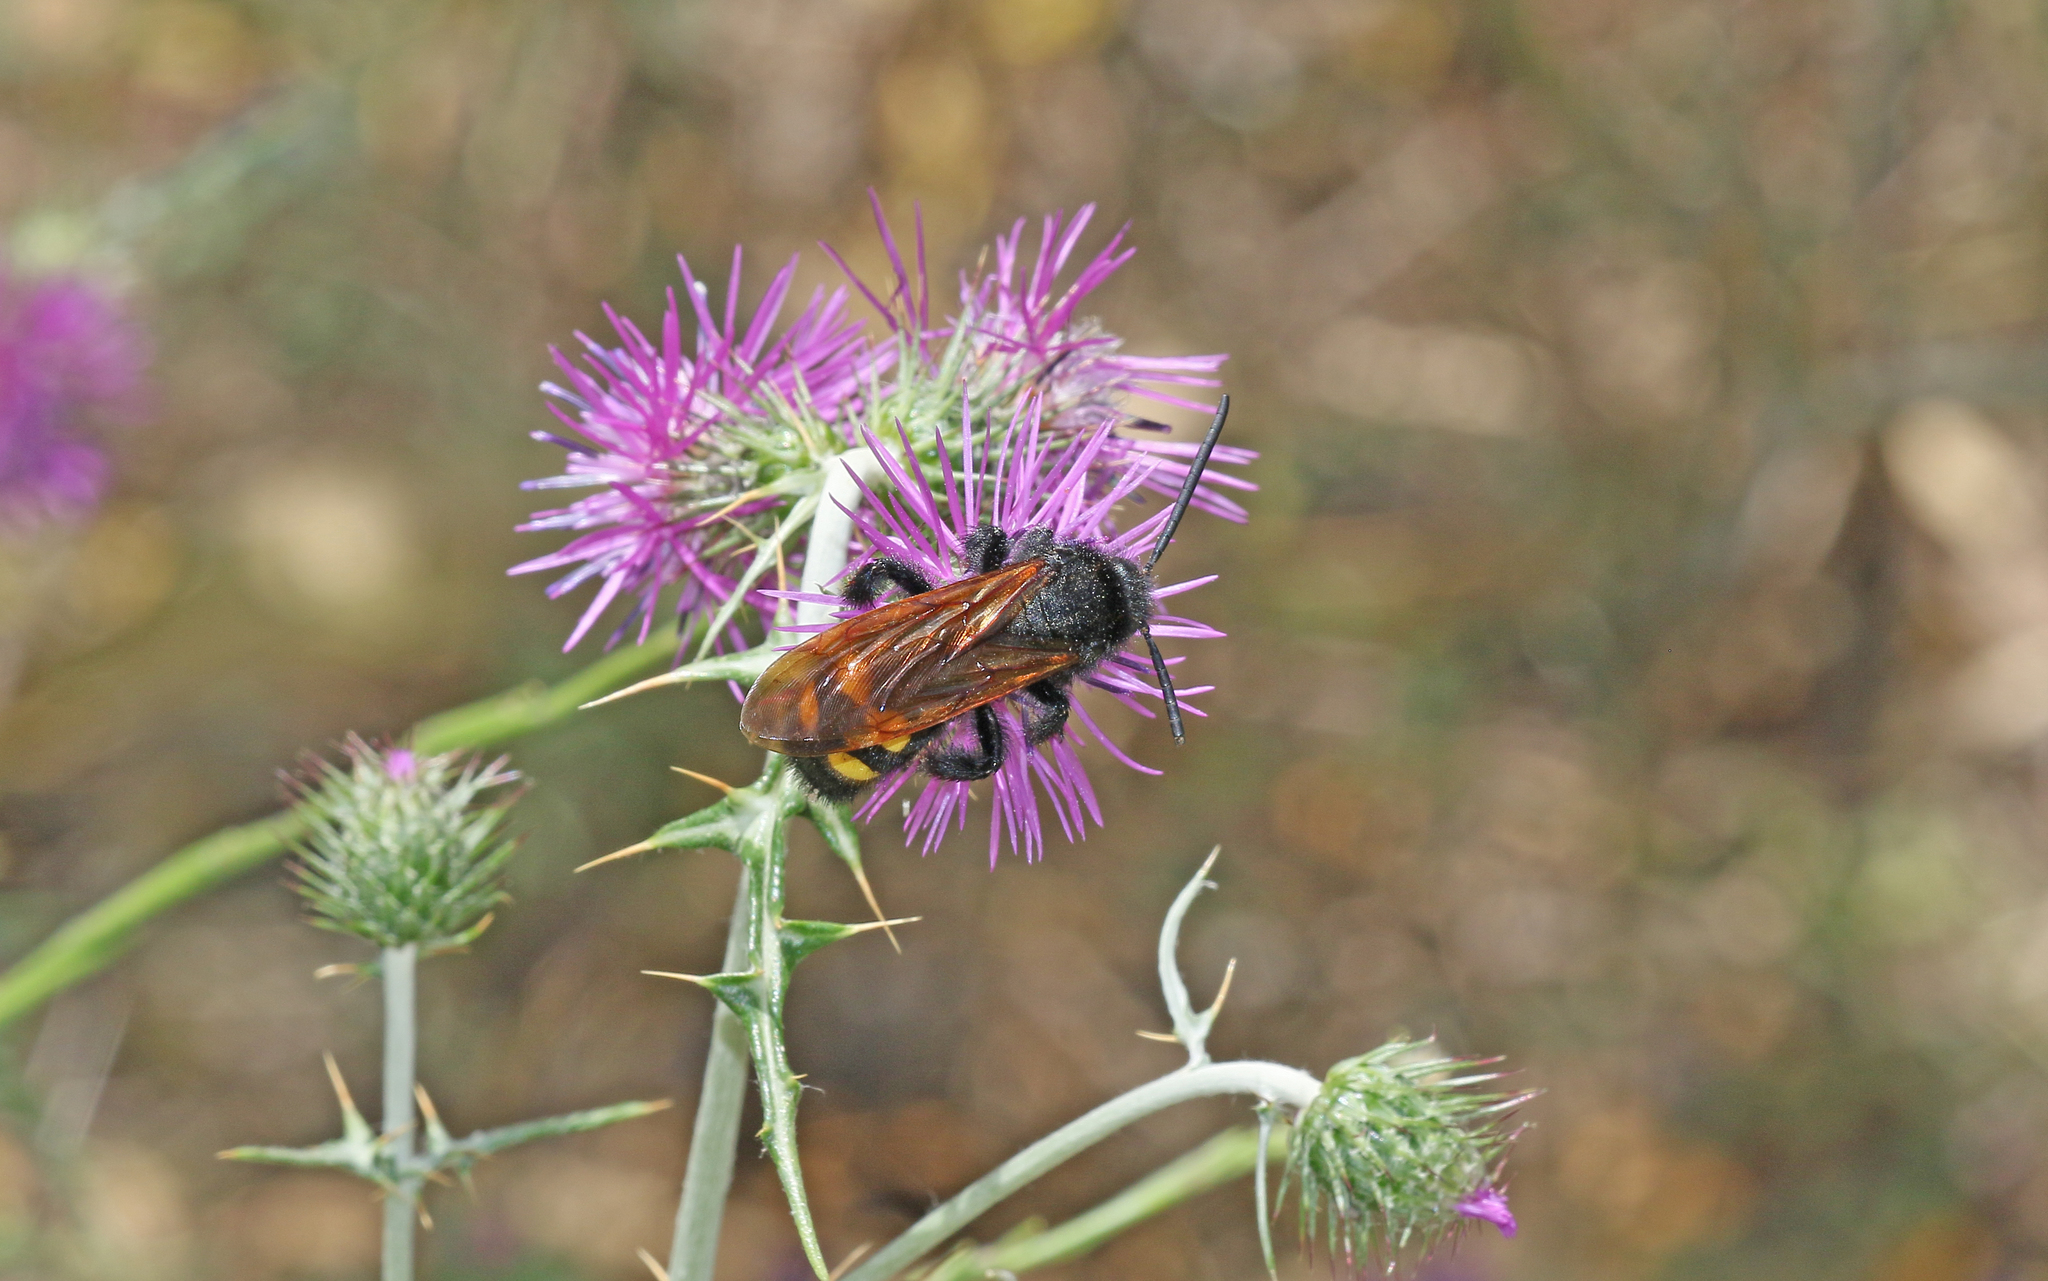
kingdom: Animalia
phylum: Arthropoda
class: Insecta
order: Hymenoptera
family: Scoliidae
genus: Megascolia
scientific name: Megascolia maculata
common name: Mammoth wasp
